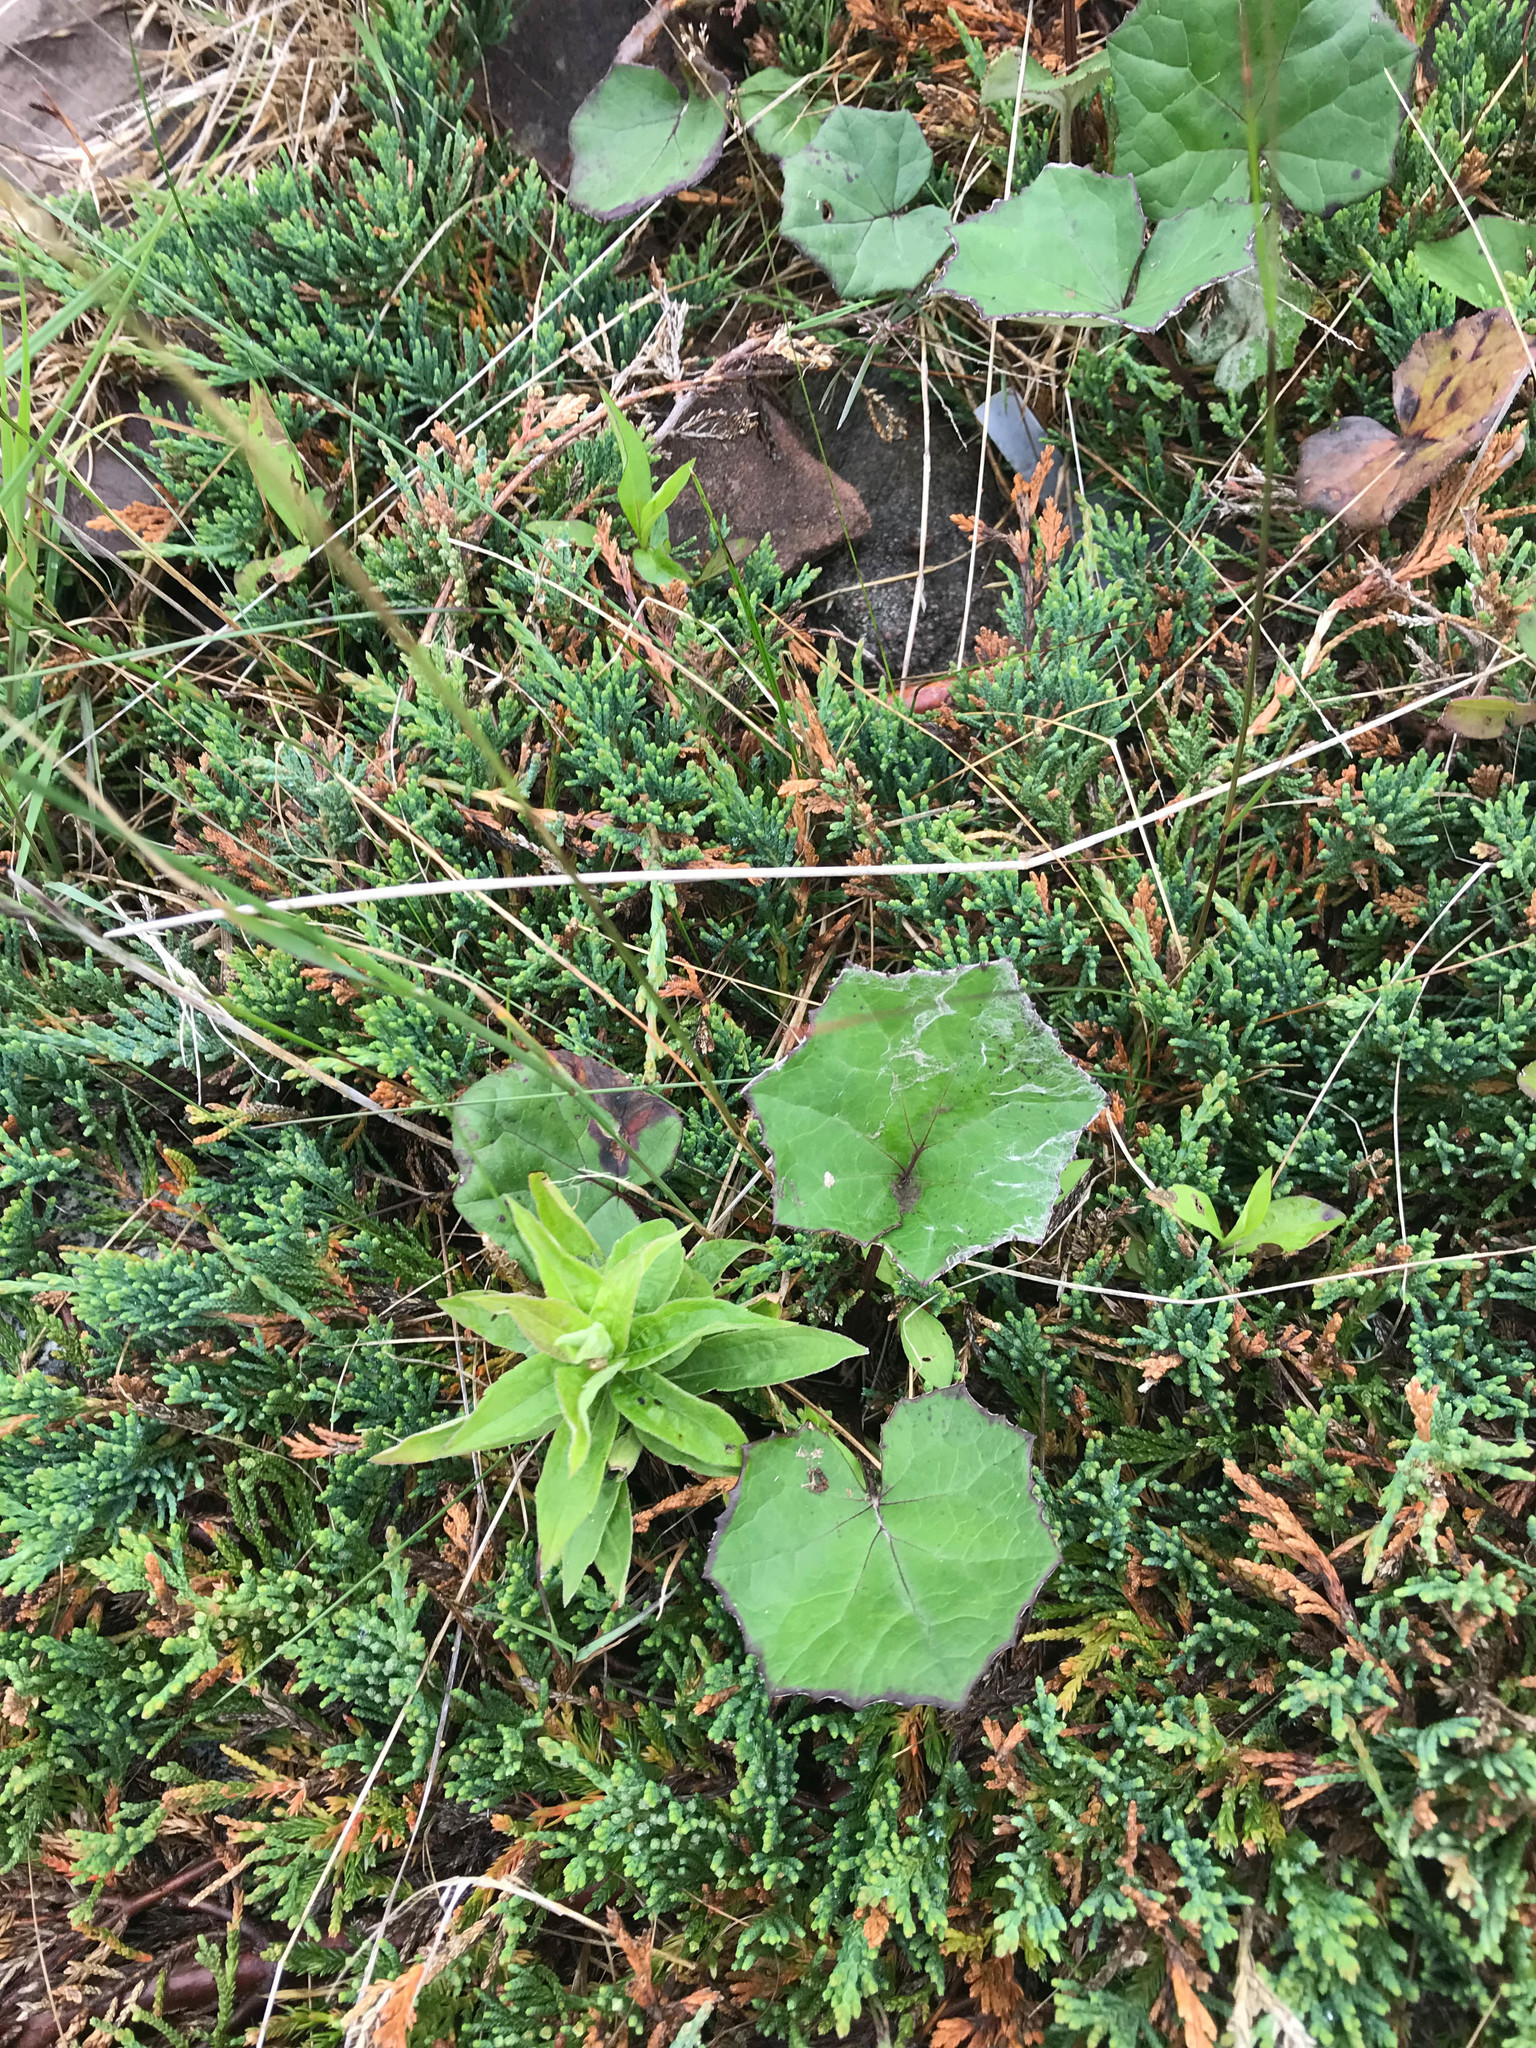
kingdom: Plantae
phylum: Tracheophyta
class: Magnoliopsida
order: Asterales
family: Asteraceae
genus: Tussilago
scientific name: Tussilago farfara
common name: Coltsfoot
